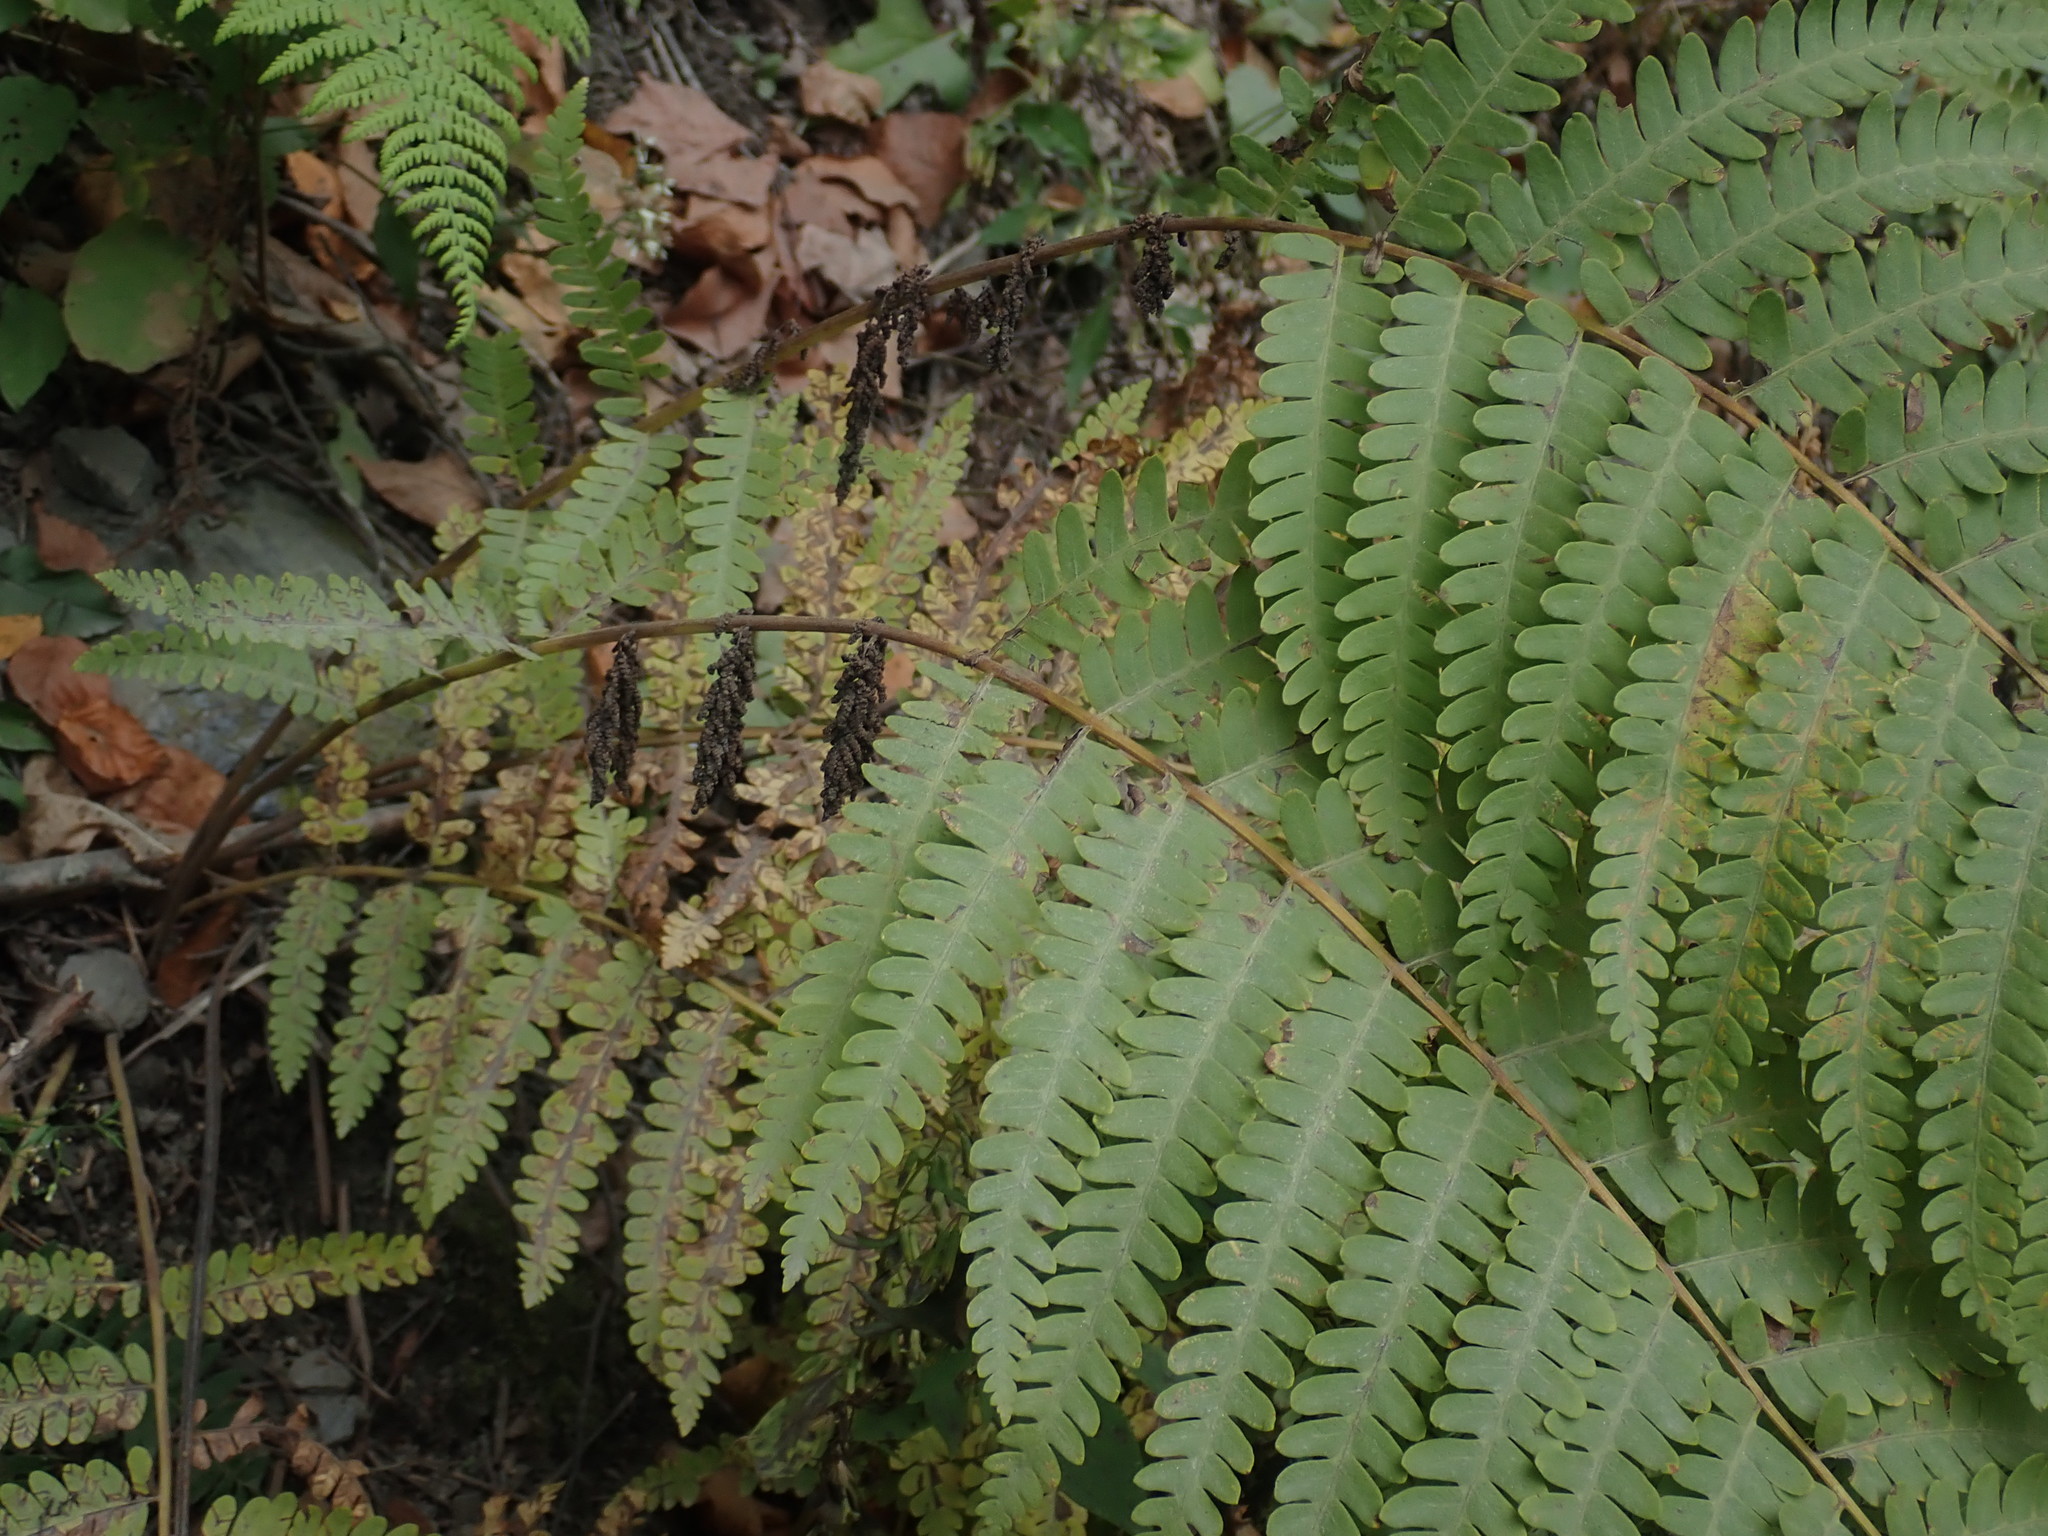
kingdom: Plantae
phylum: Tracheophyta
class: Polypodiopsida
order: Osmundales
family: Osmundaceae
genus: Claytosmunda
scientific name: Claytosmunda claytoniana
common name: Clayton's fern
